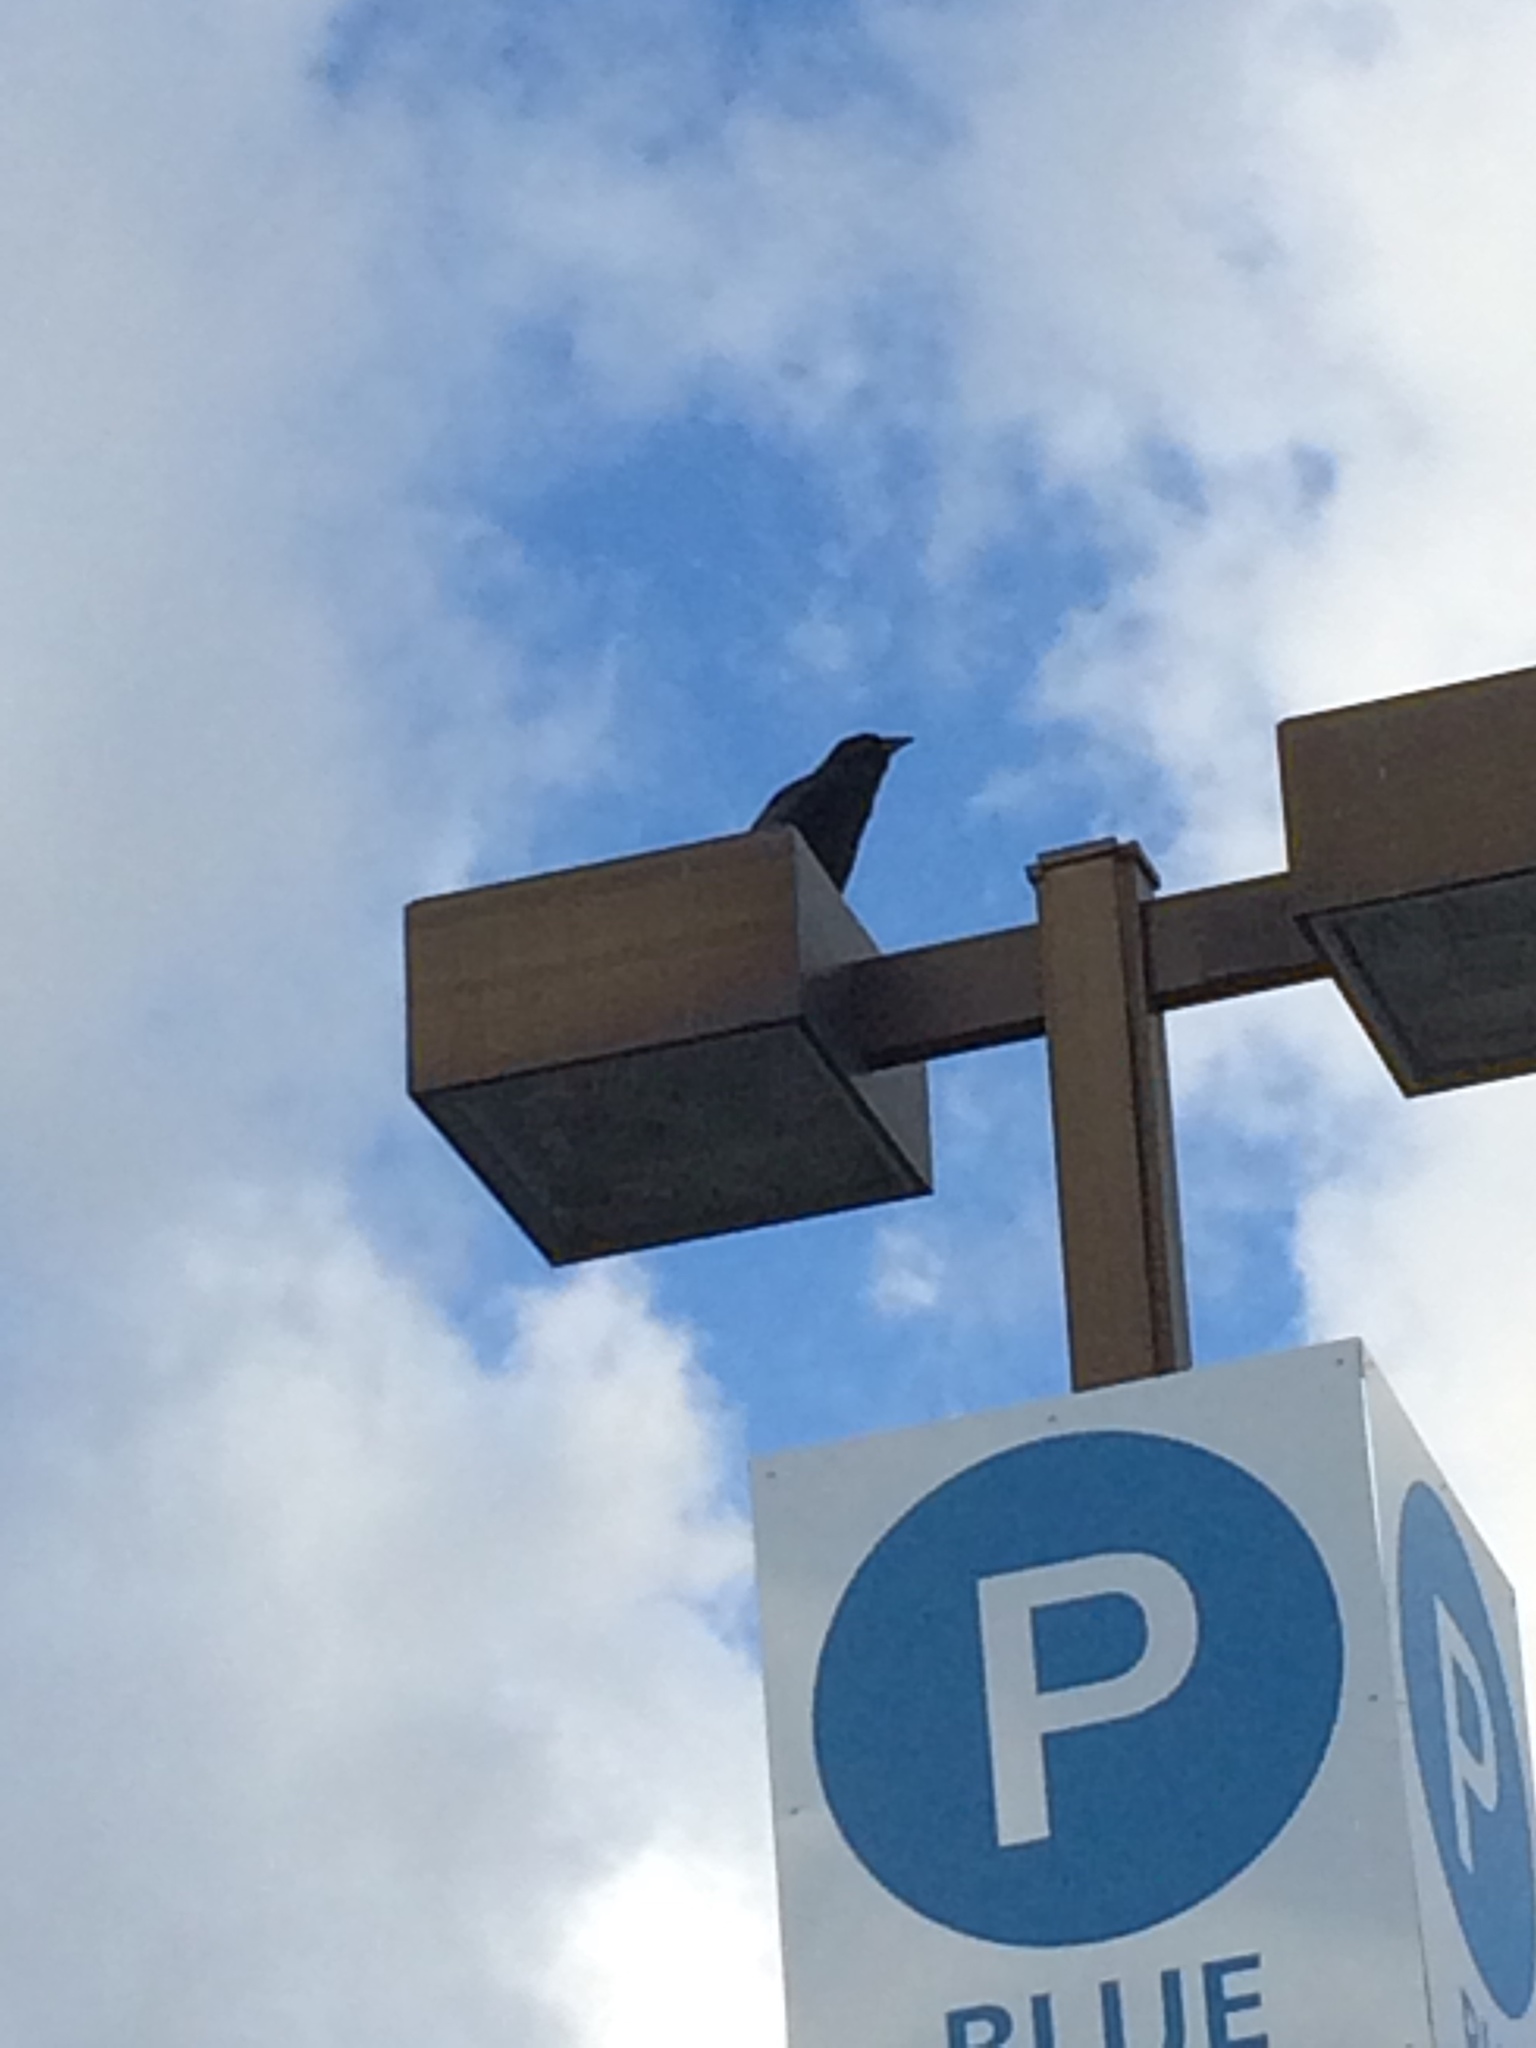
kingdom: Animalia
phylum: Chordata
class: Aves
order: Passeriformes
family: Corvidae
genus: Corvus
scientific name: Corvus brachyrhynchos
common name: American crow
